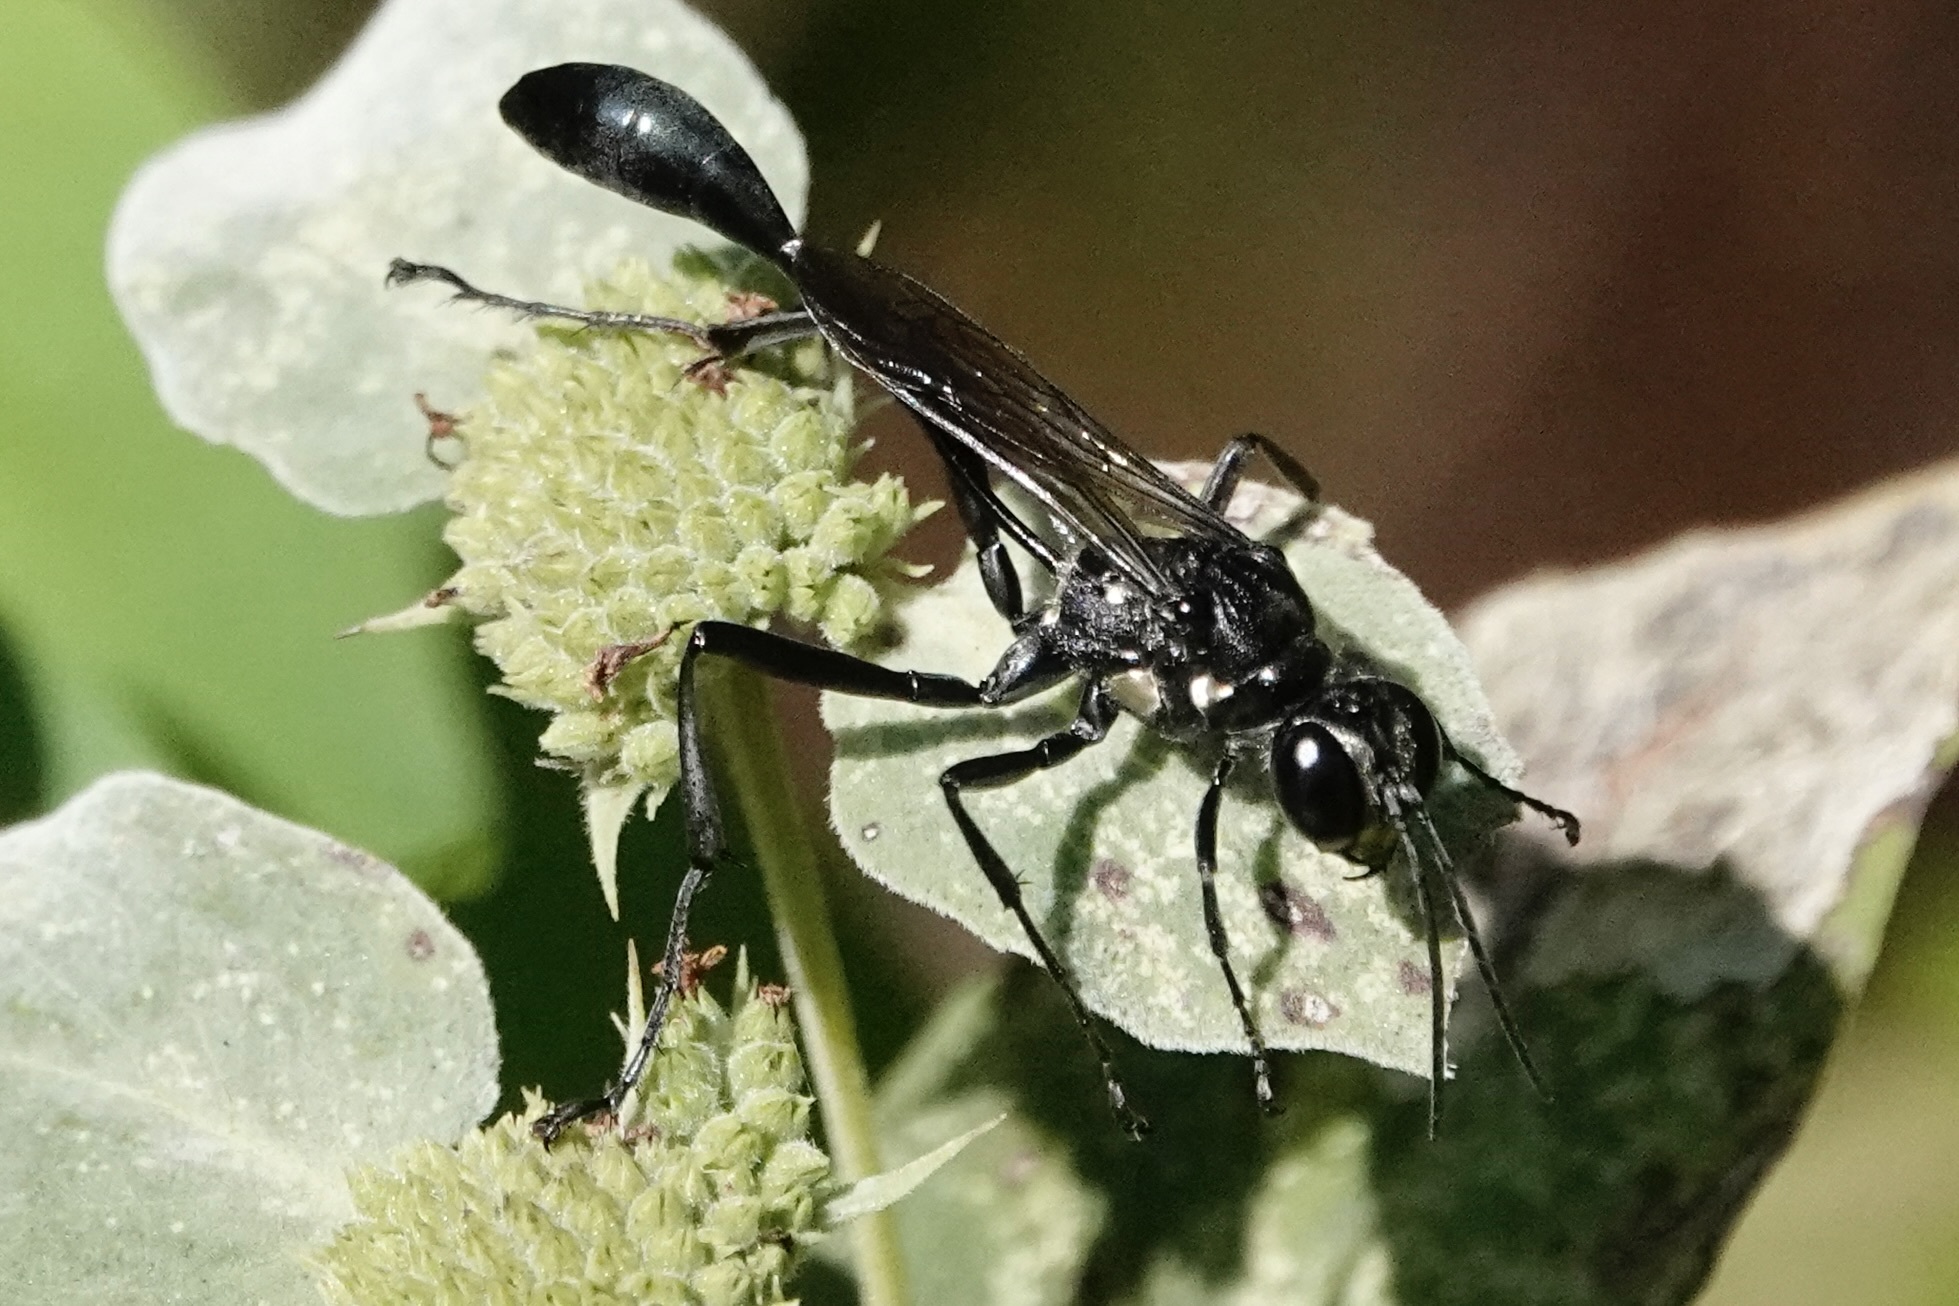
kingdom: Animalia
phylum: Arthropoda
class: Insecta
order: Hymenoptera
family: Sphecidae
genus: Eremnophila
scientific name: Eremnophila aureonotata
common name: Gold-marked thread-waisted wasp
